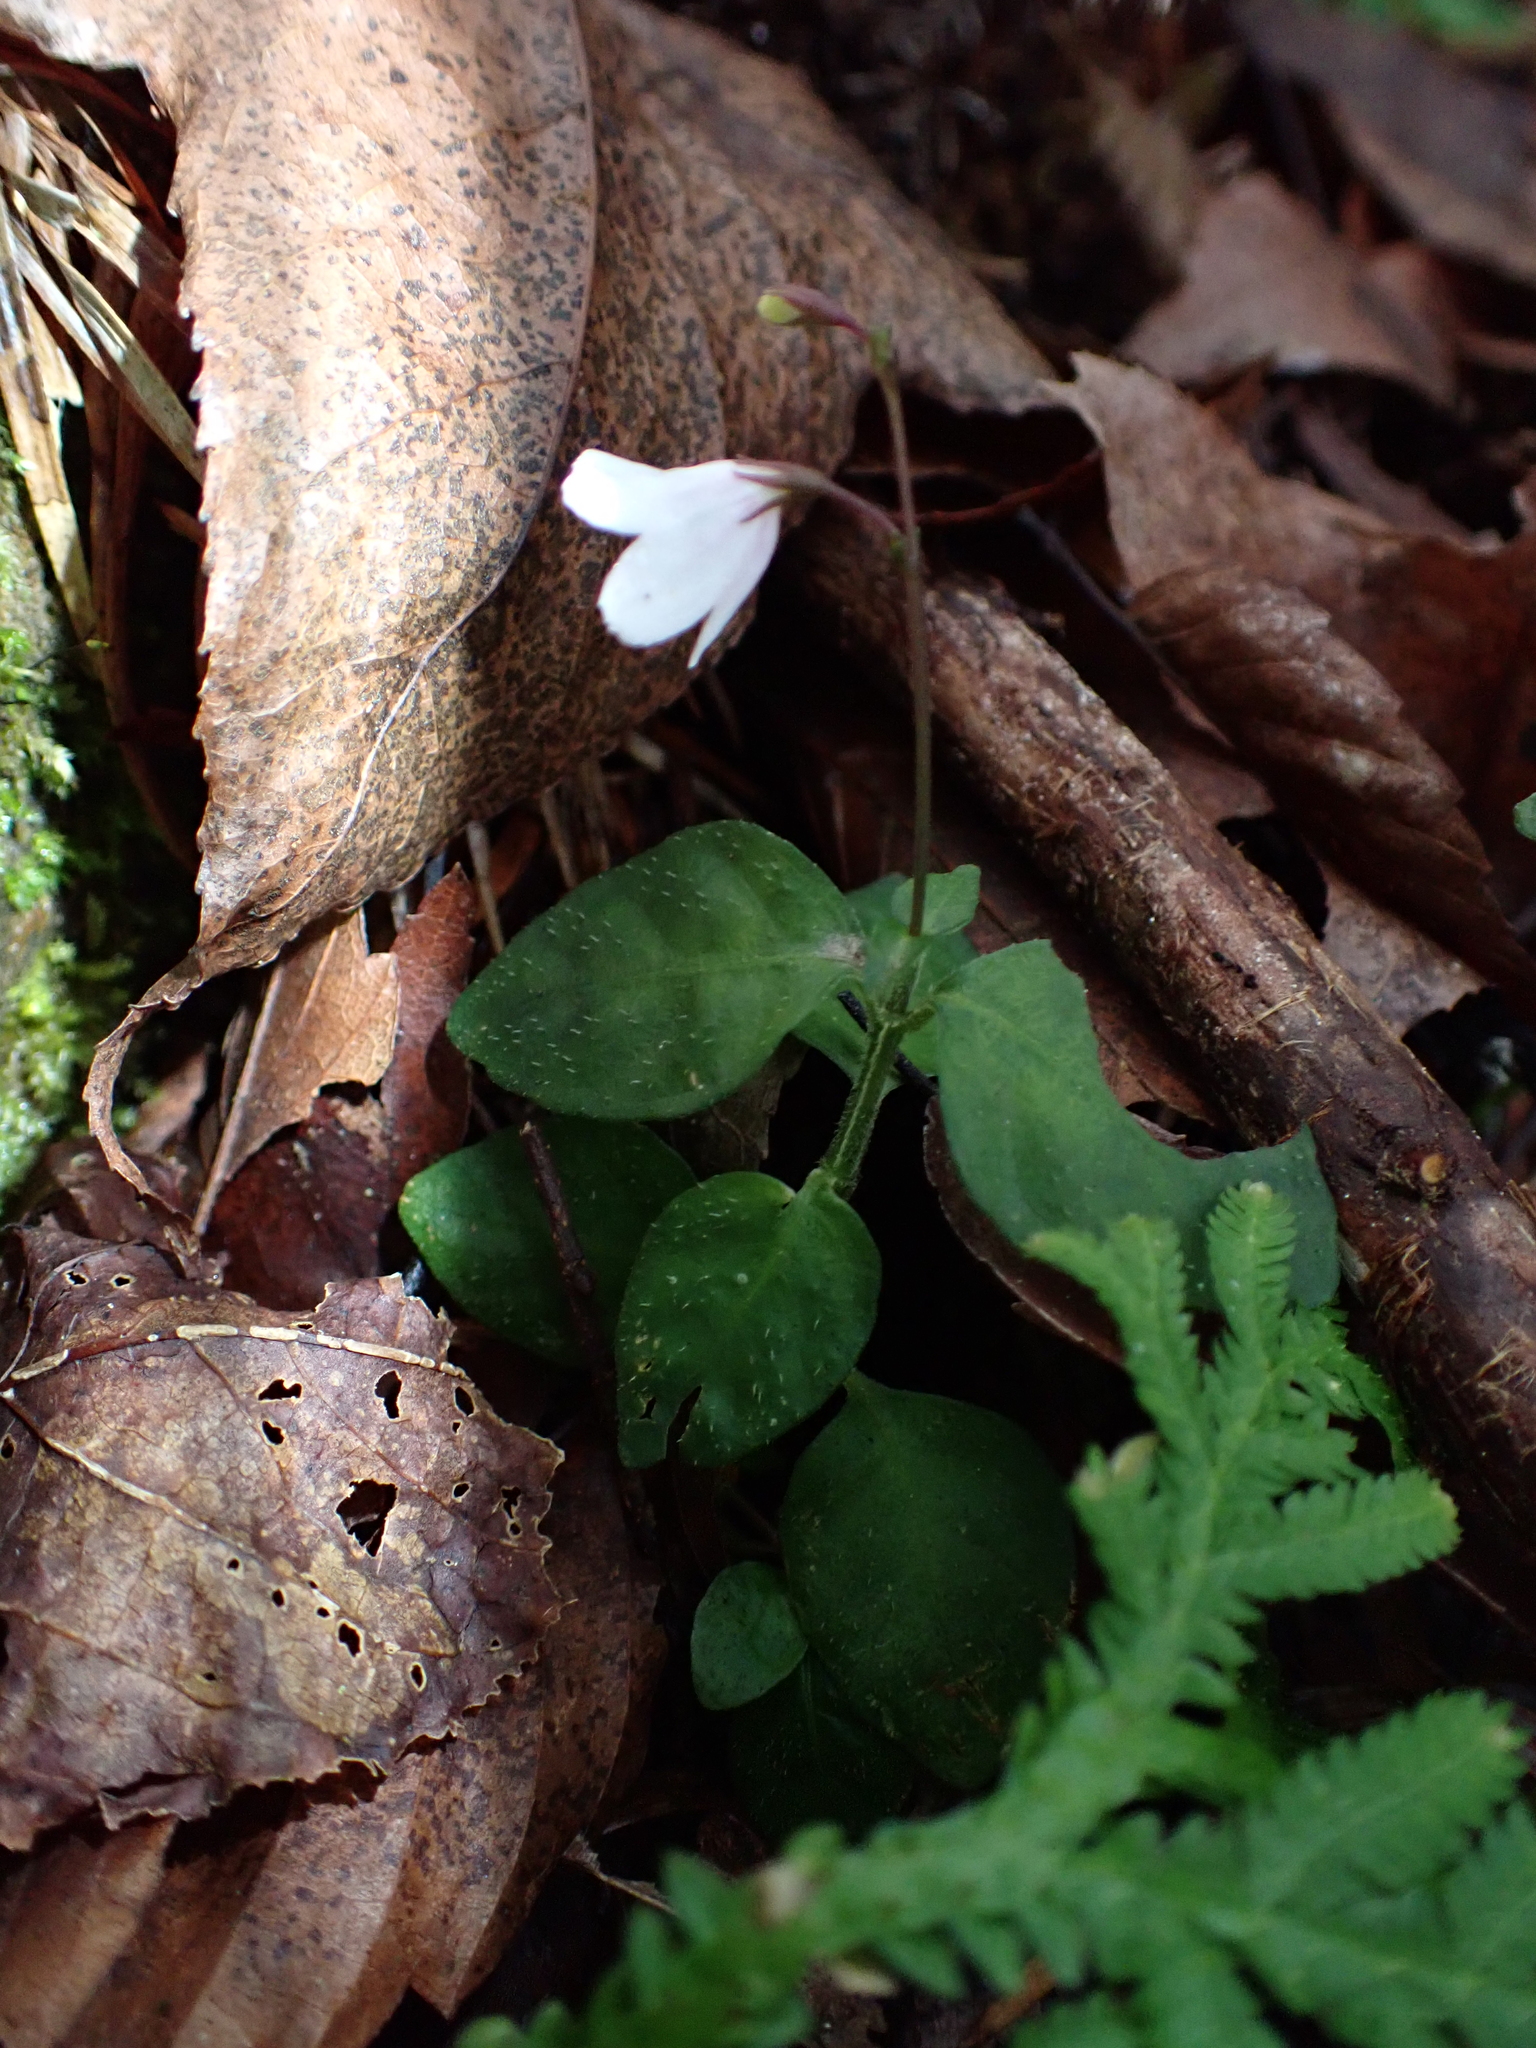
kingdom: Plantae
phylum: Tracheophyta
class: Magnoliopsida
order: Lamiales
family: Acanthaceae
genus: Codonacanthus
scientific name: Codonacanthus pauciflorus
